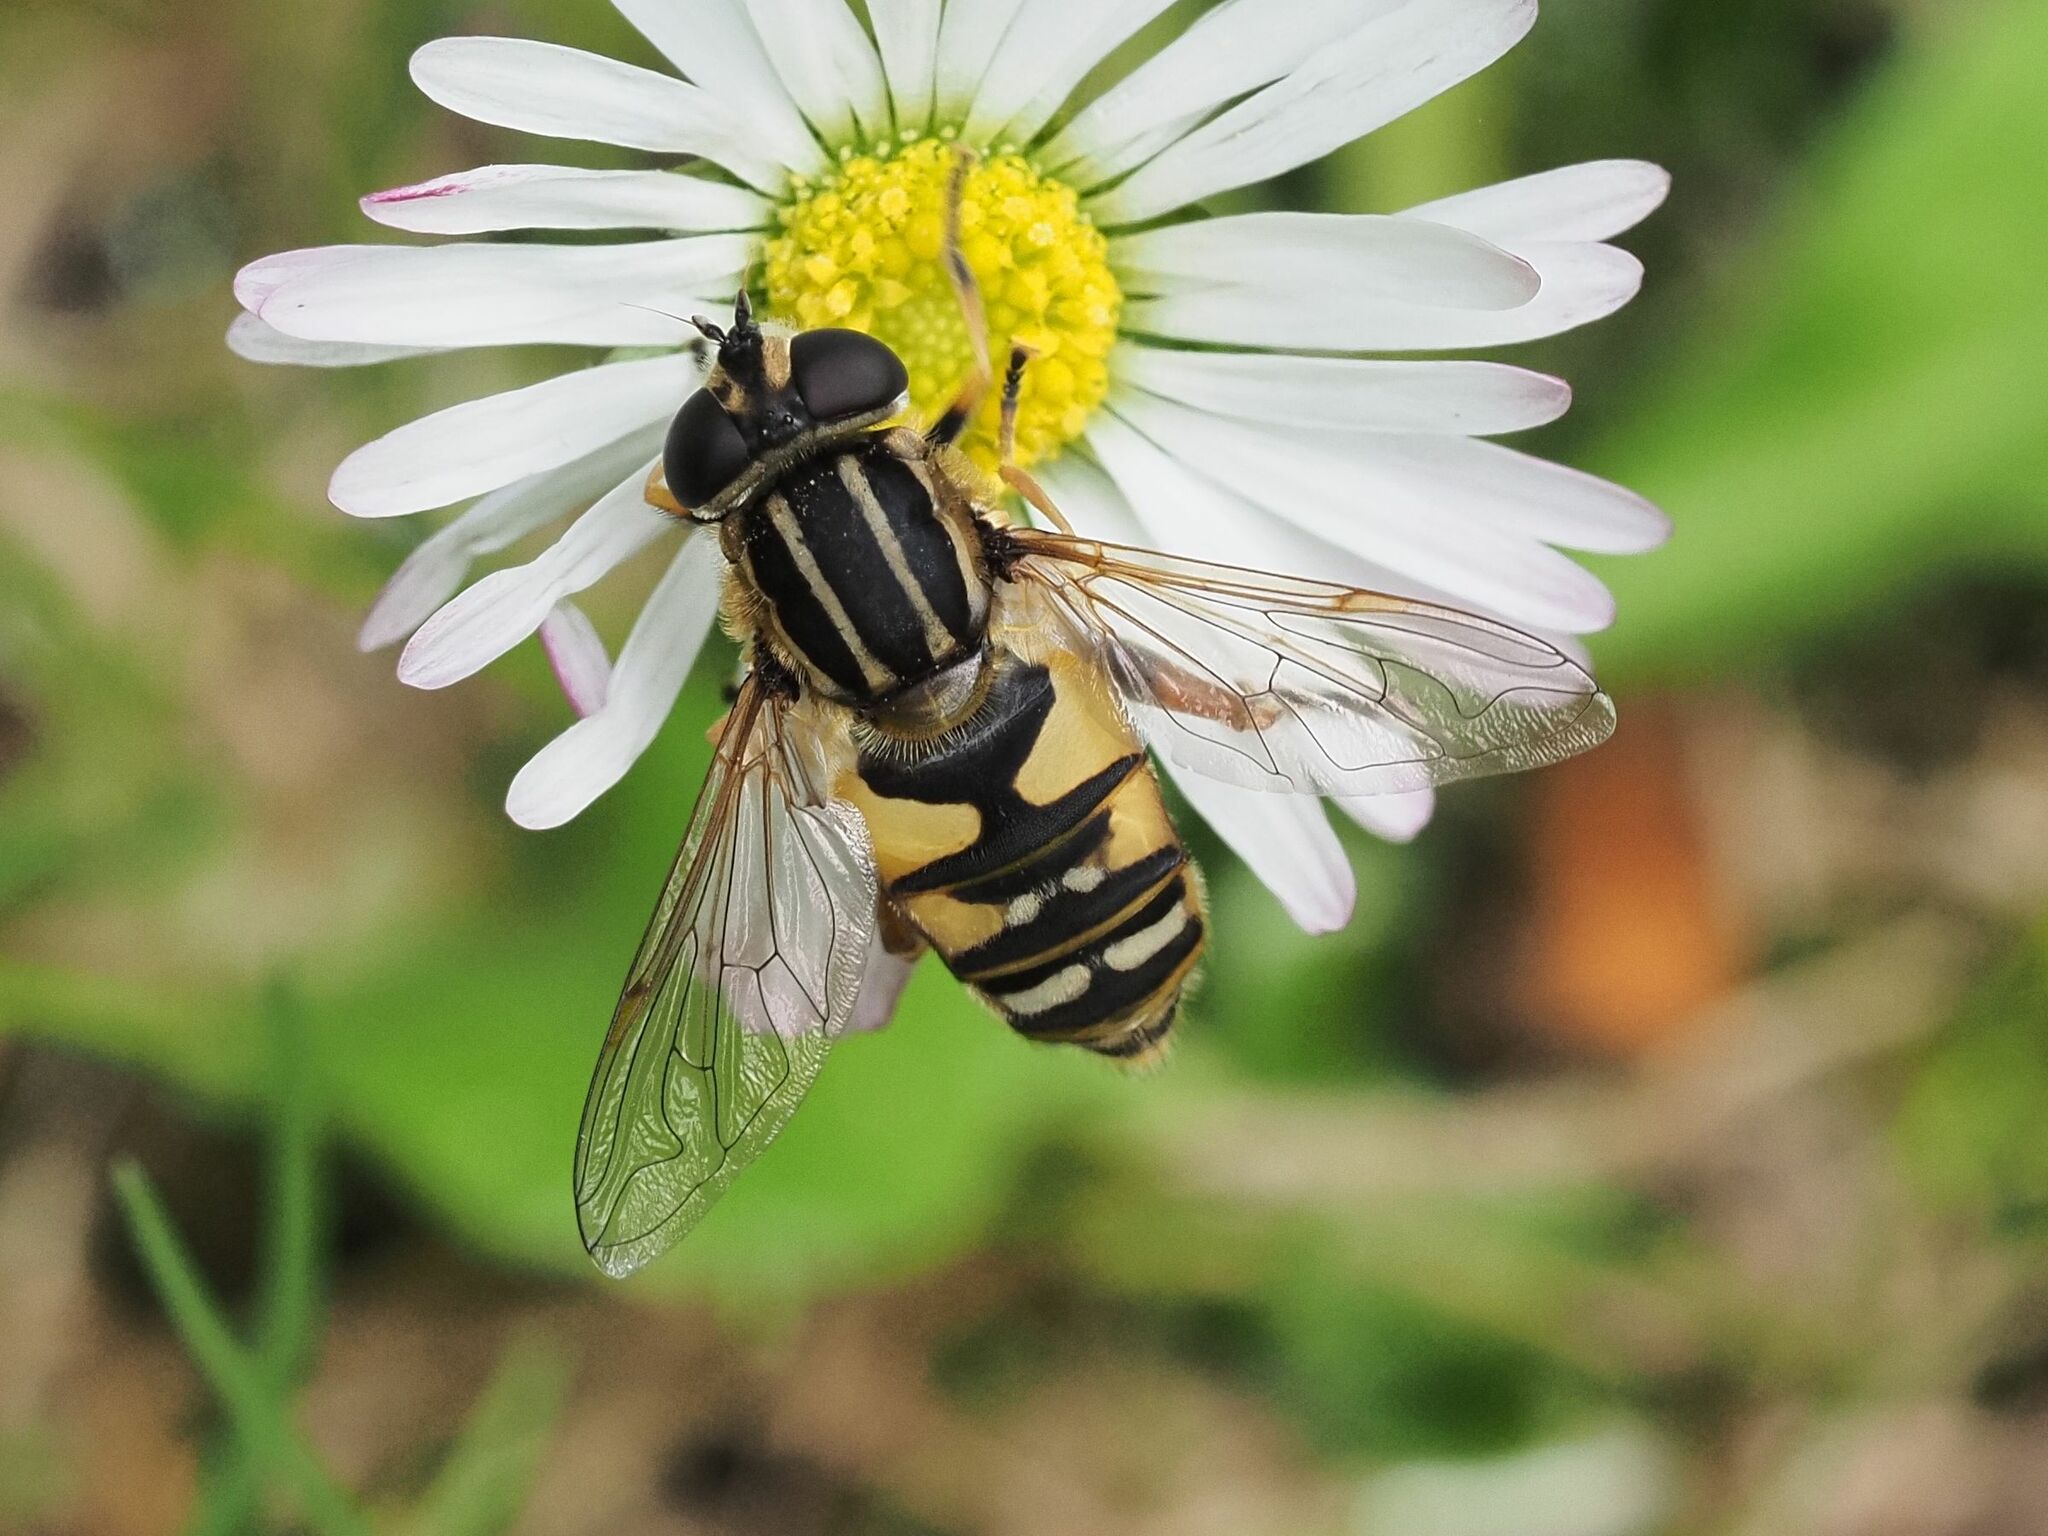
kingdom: Animalia
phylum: Arthropoda
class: Insecta
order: Diptera
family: Syrphidae
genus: Helophilus
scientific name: Helophilus pendulus
